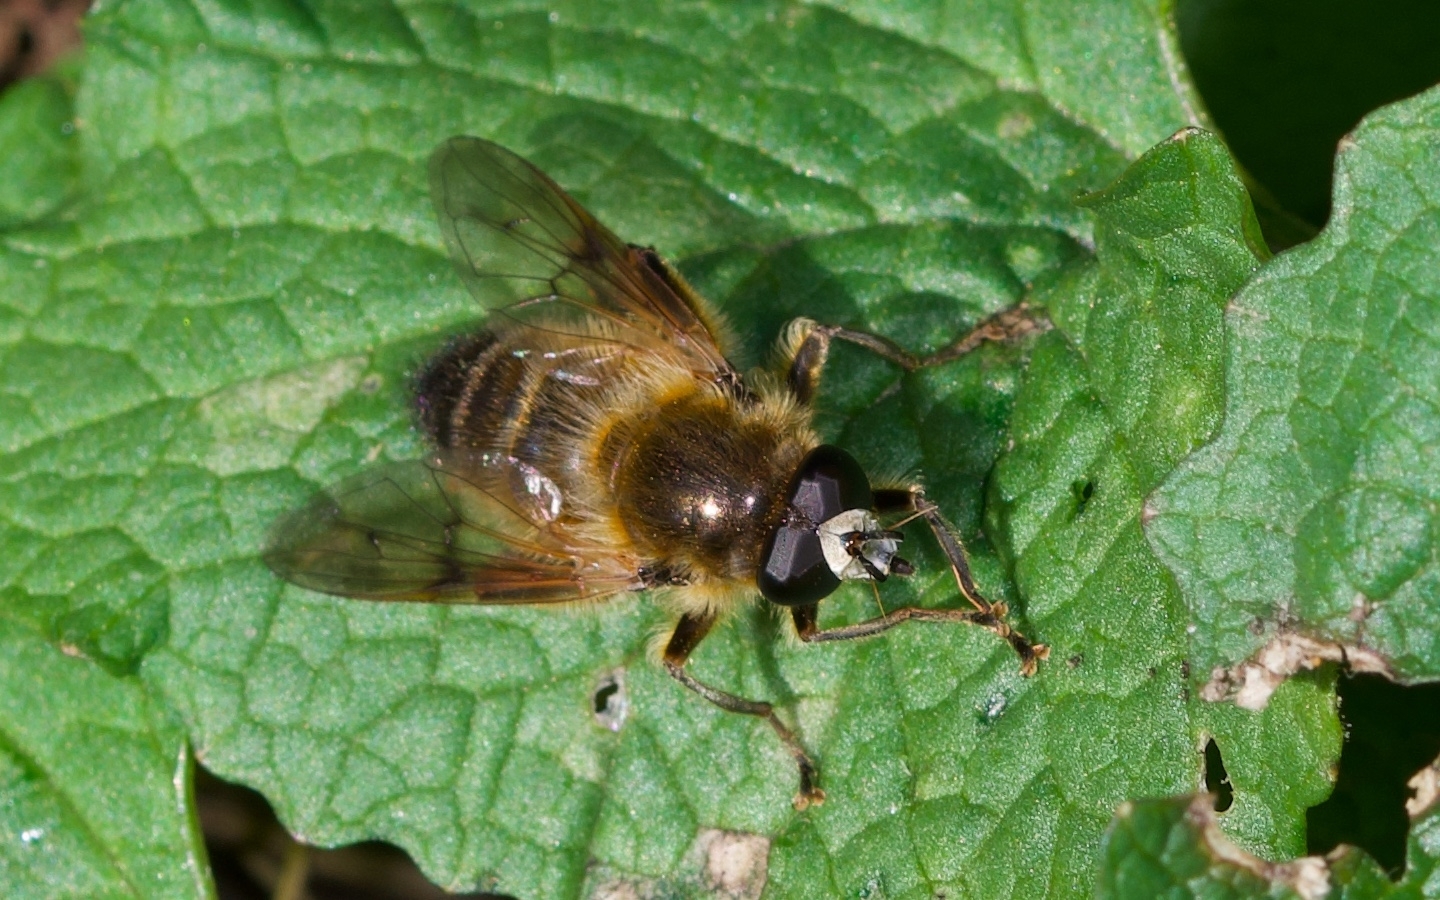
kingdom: Animalia
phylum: Arthropoda
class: Insecta
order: Diptera
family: Syrphidae
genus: Brachypalpus
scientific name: Brachypalpus valgus
